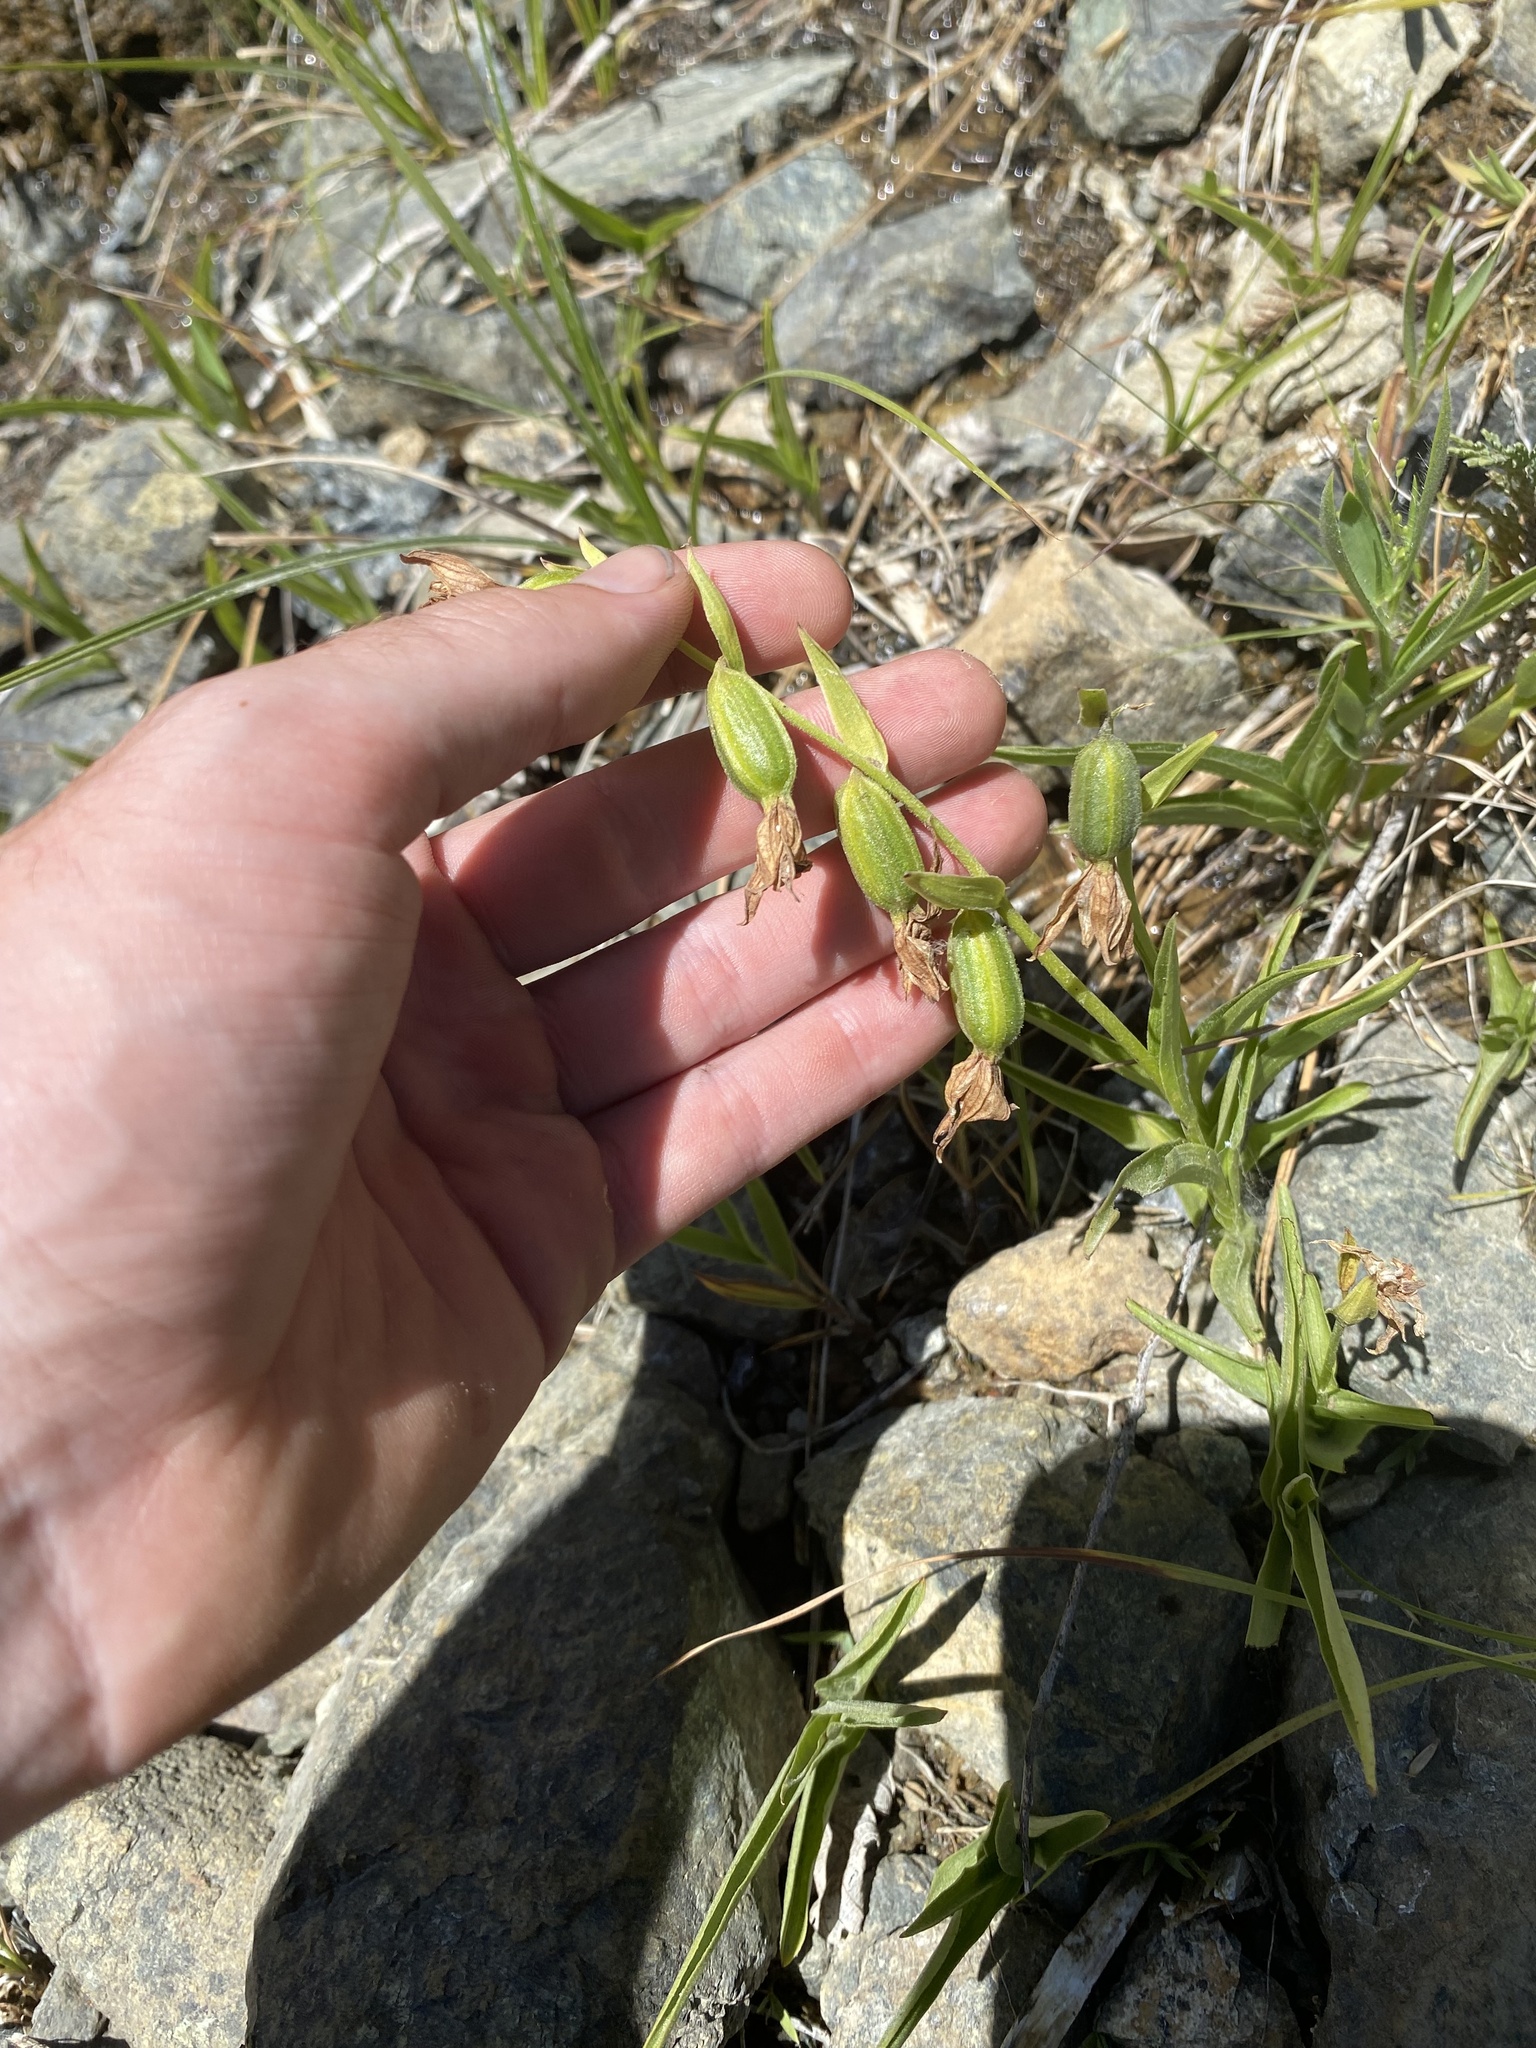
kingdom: Plantae
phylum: Tracheophyta
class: Liliopsida
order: Asparagales
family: Orchidaceae
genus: Epipactis
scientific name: Epipactis gigantea
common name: Chatterbox
